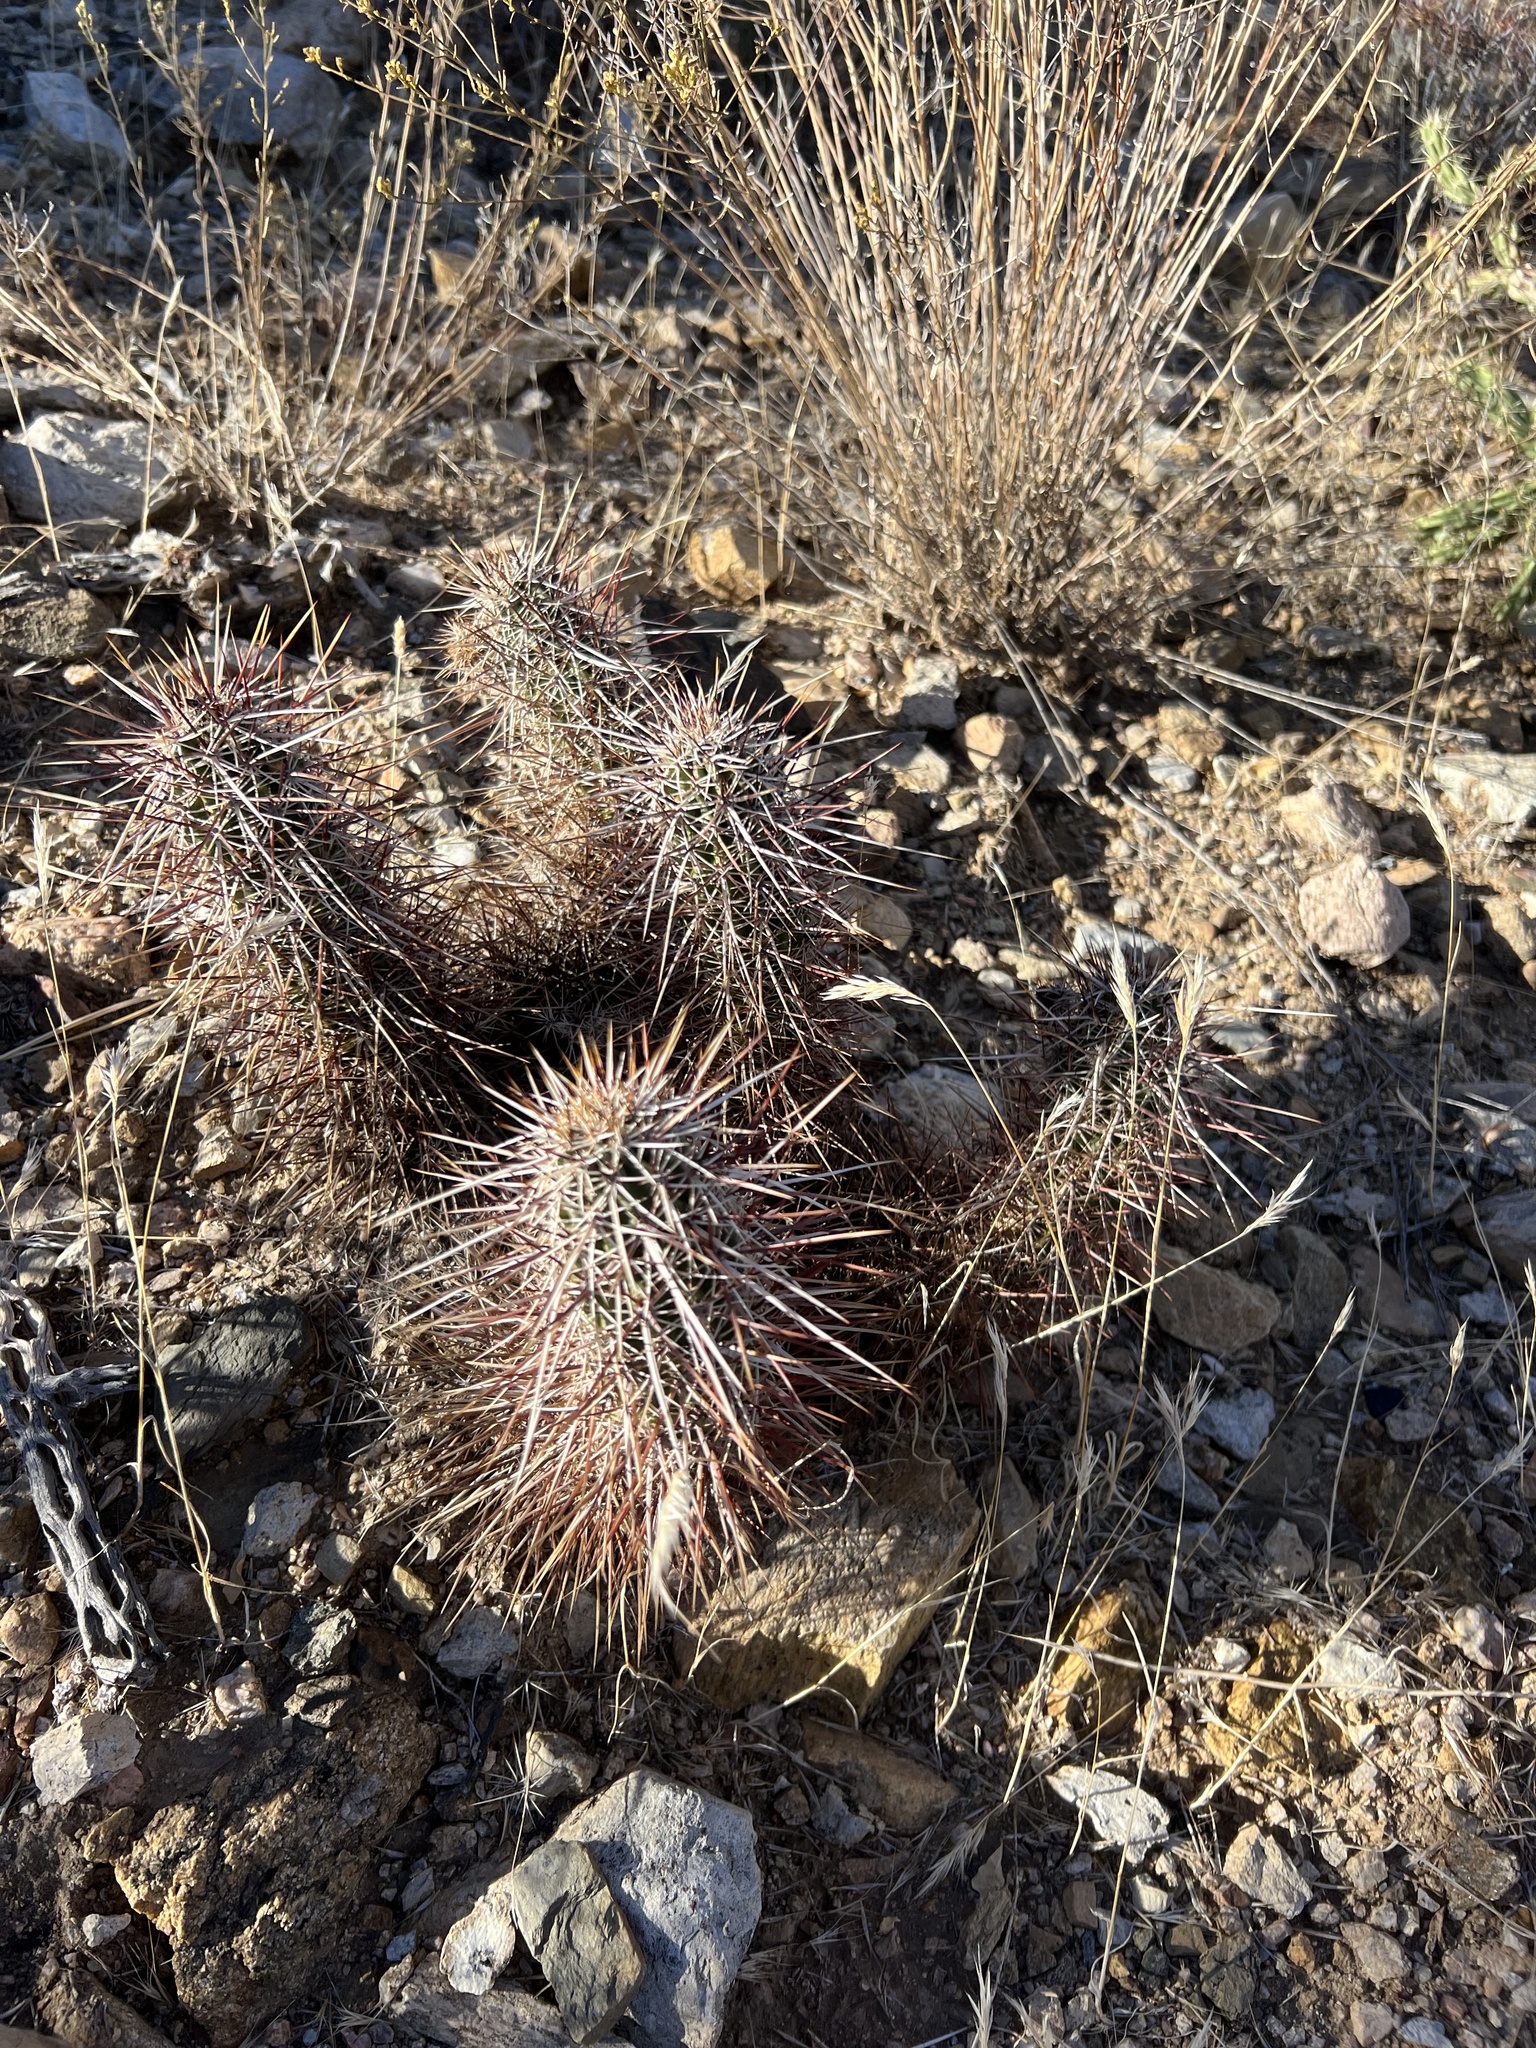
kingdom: Plantae
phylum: Tracheophyta
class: Magnoliopsida
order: Caryophyllales
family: Cactaceae
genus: Echinocereus
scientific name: Echinocereus engelmannii
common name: Engelmann's hedgehog cactus
